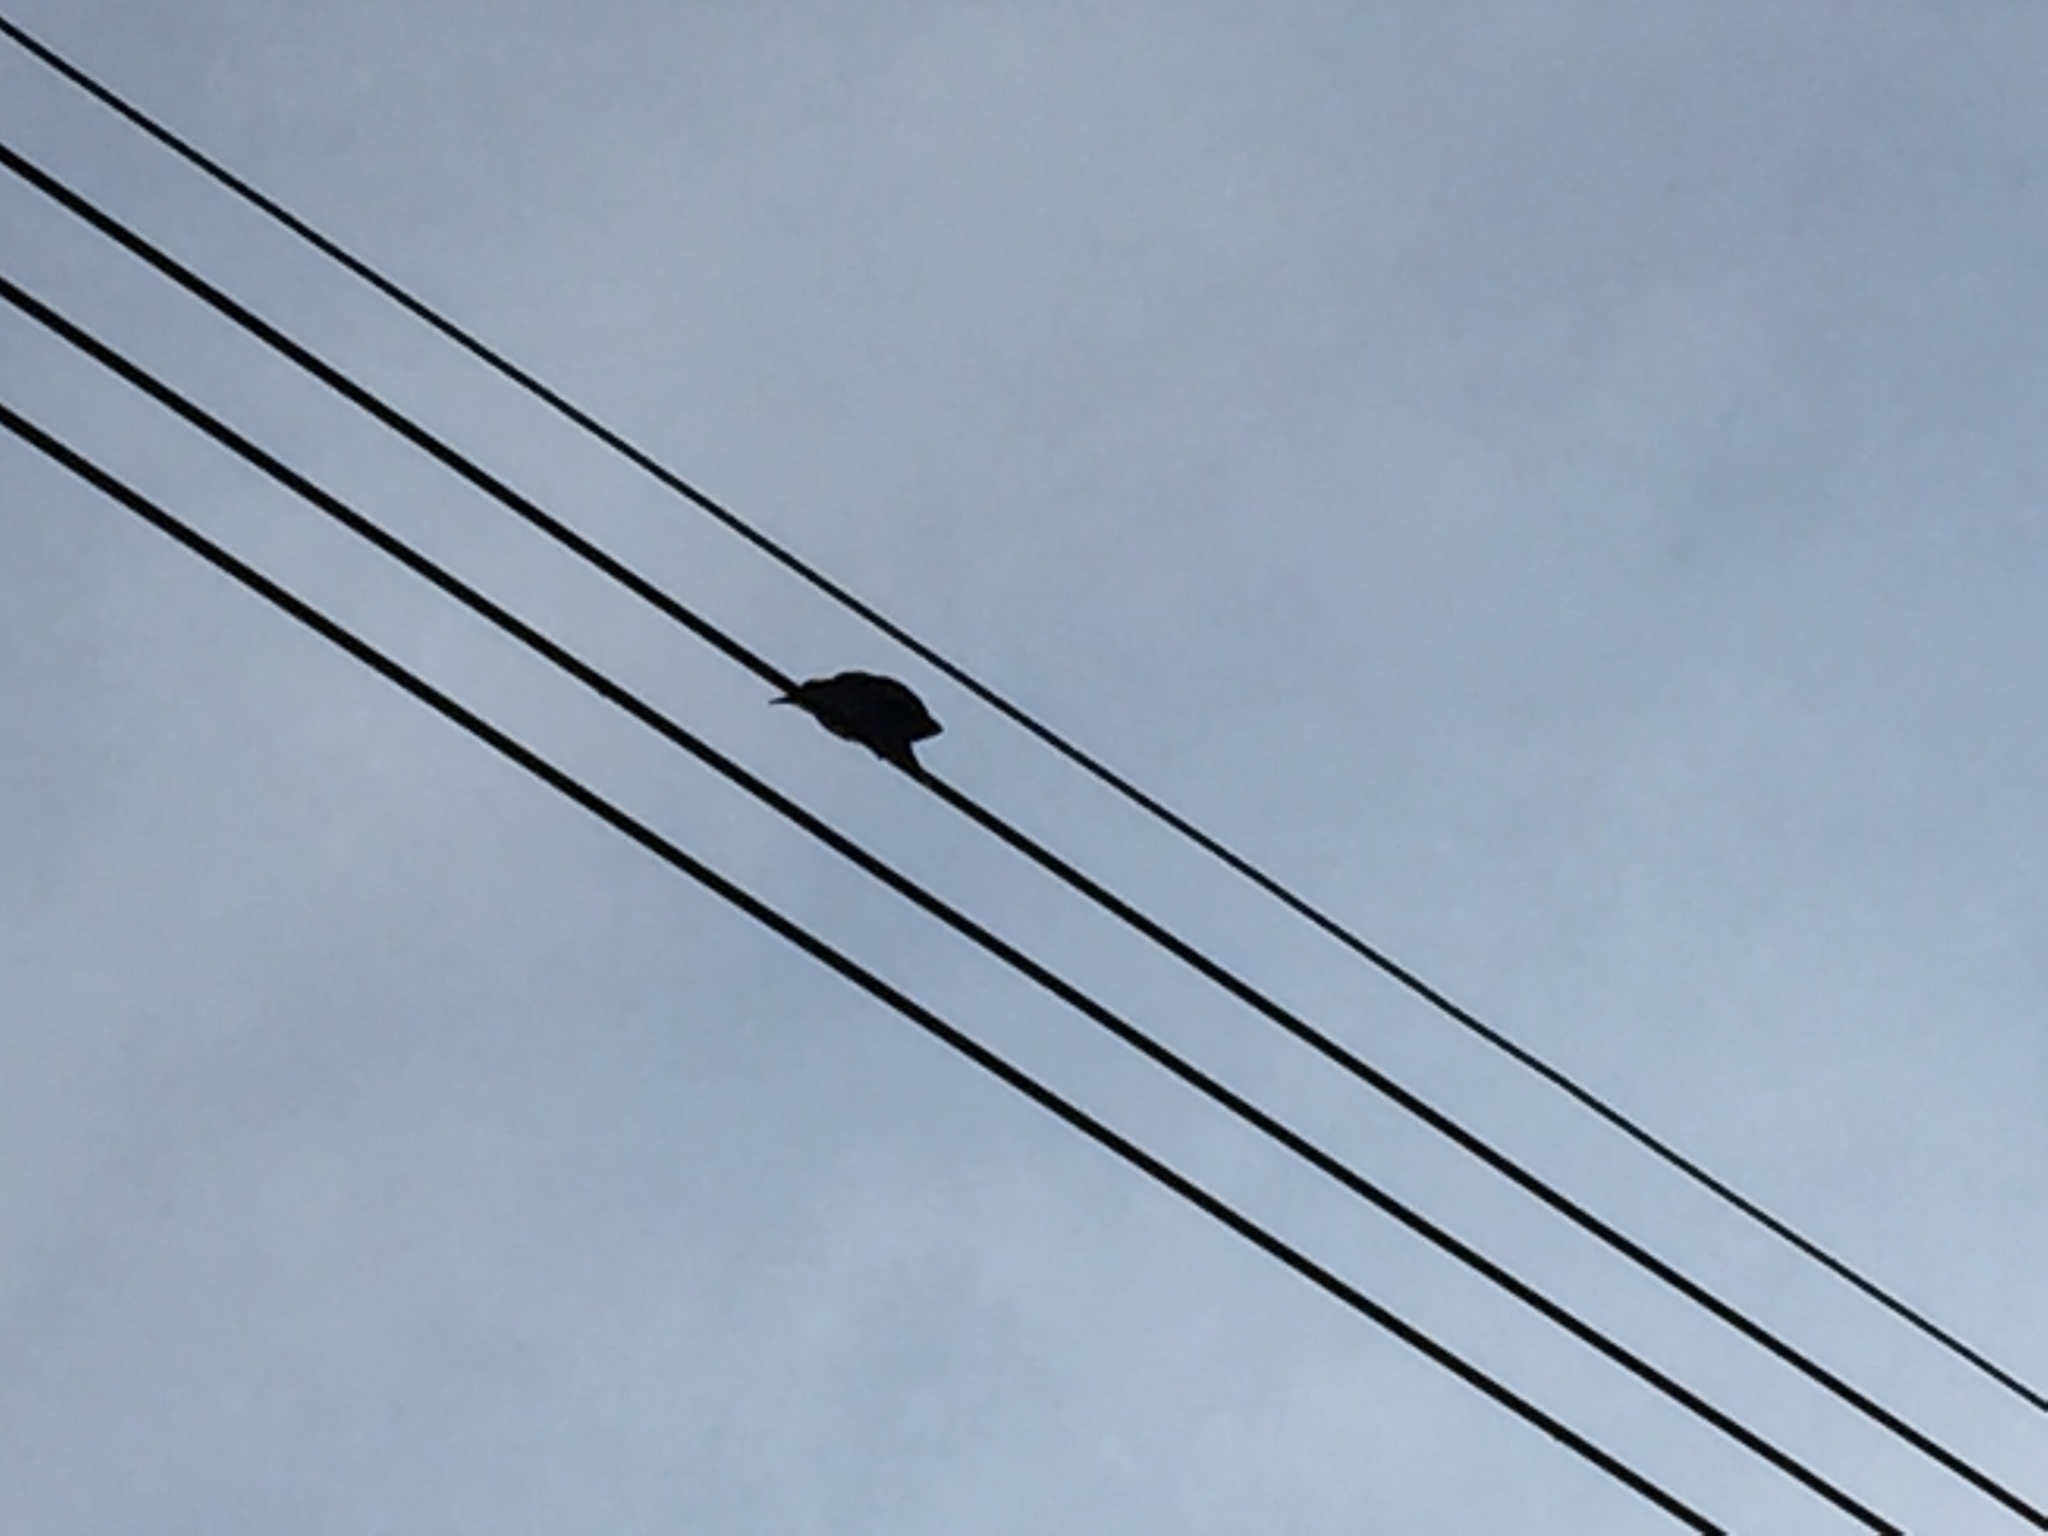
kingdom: Animalia
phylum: Chordata
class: Aves
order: Passeriformes
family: Pycnonotidae
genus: Hypsipetes
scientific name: Hypsipetes amaurotis
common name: Brown-eared bulbul
